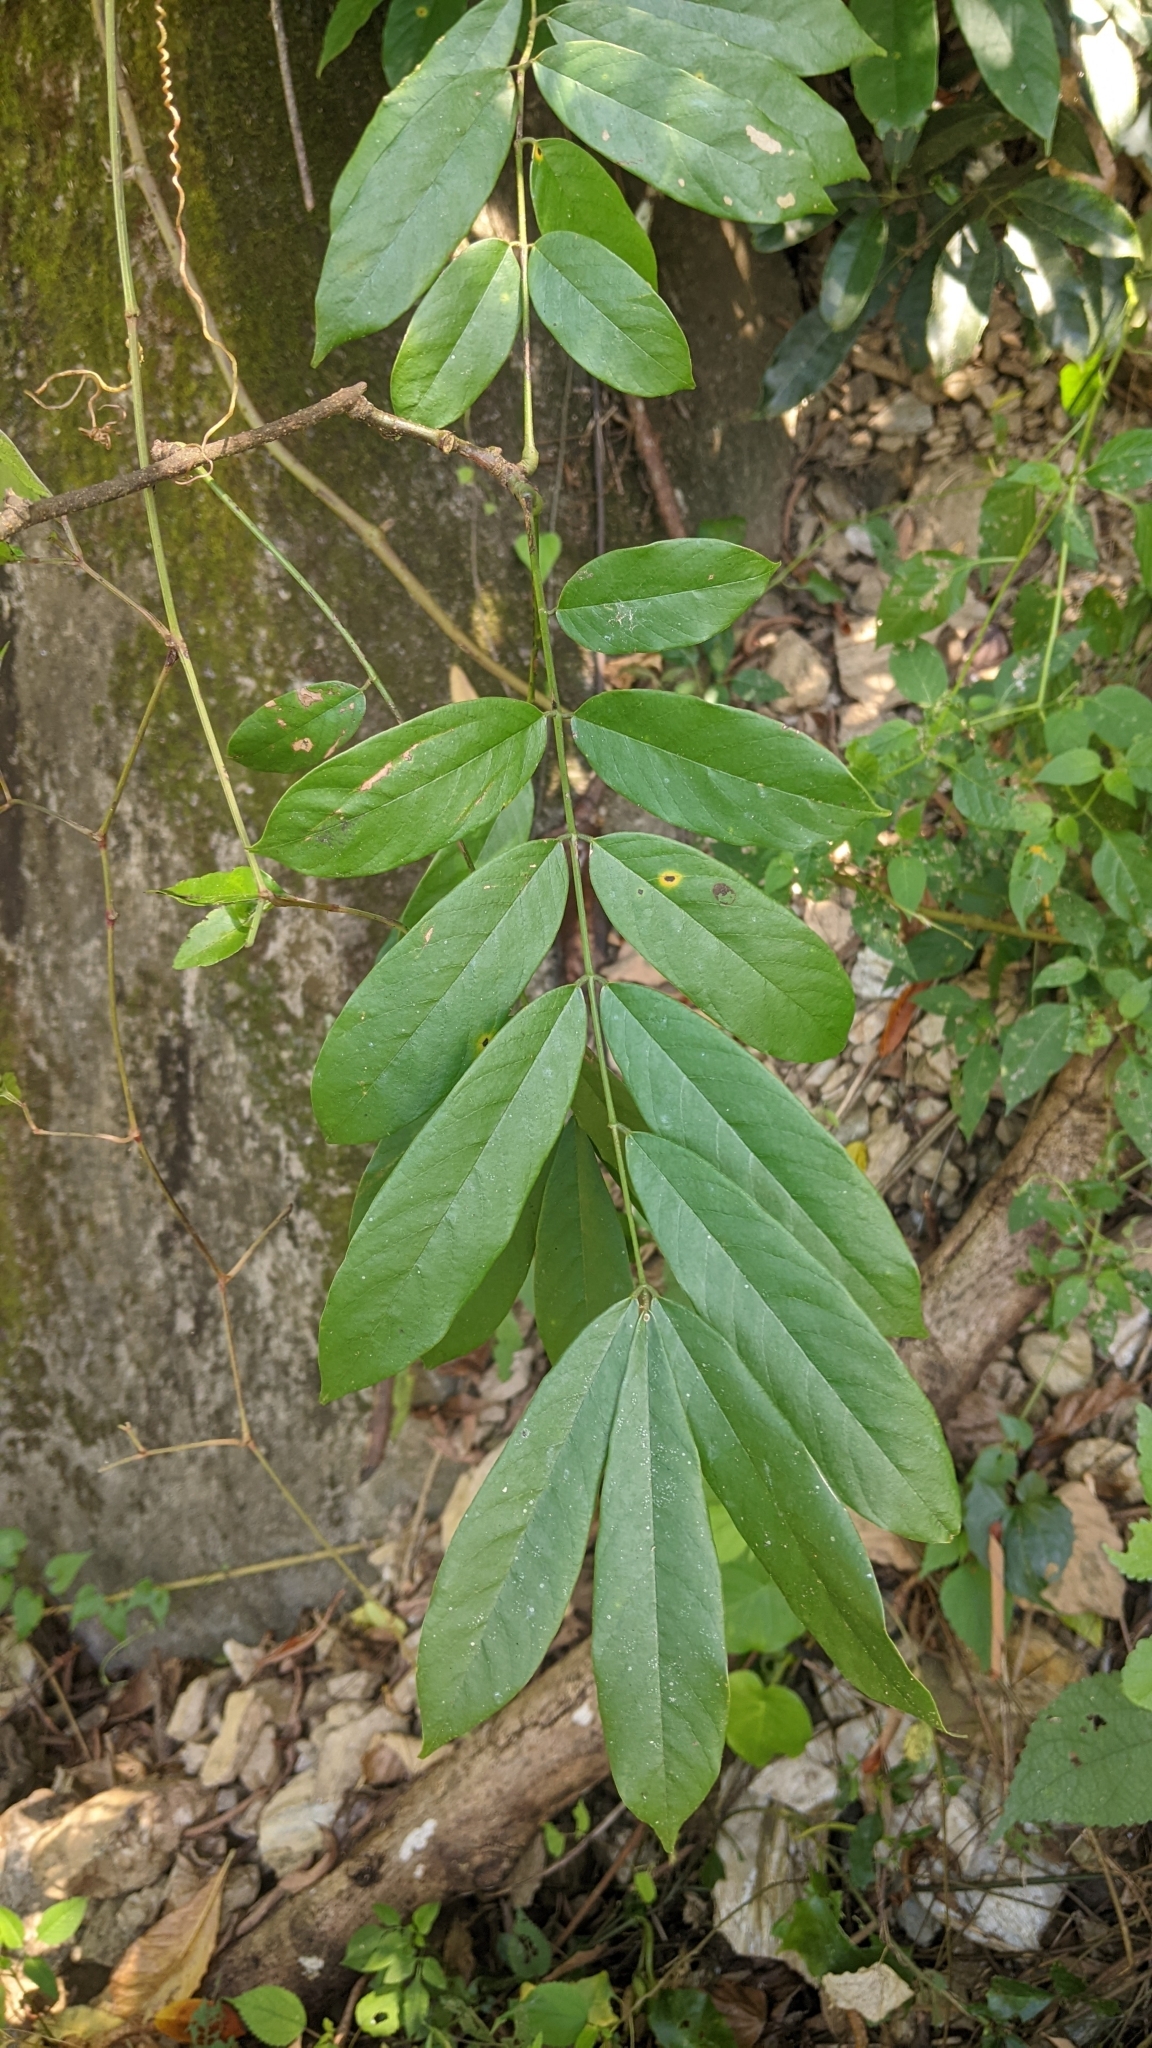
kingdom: Plantae
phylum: Tracheophyta
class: Magnoliopsida
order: Fabales
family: Fabaceae
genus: Millettia
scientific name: Millettia pachycarpa
